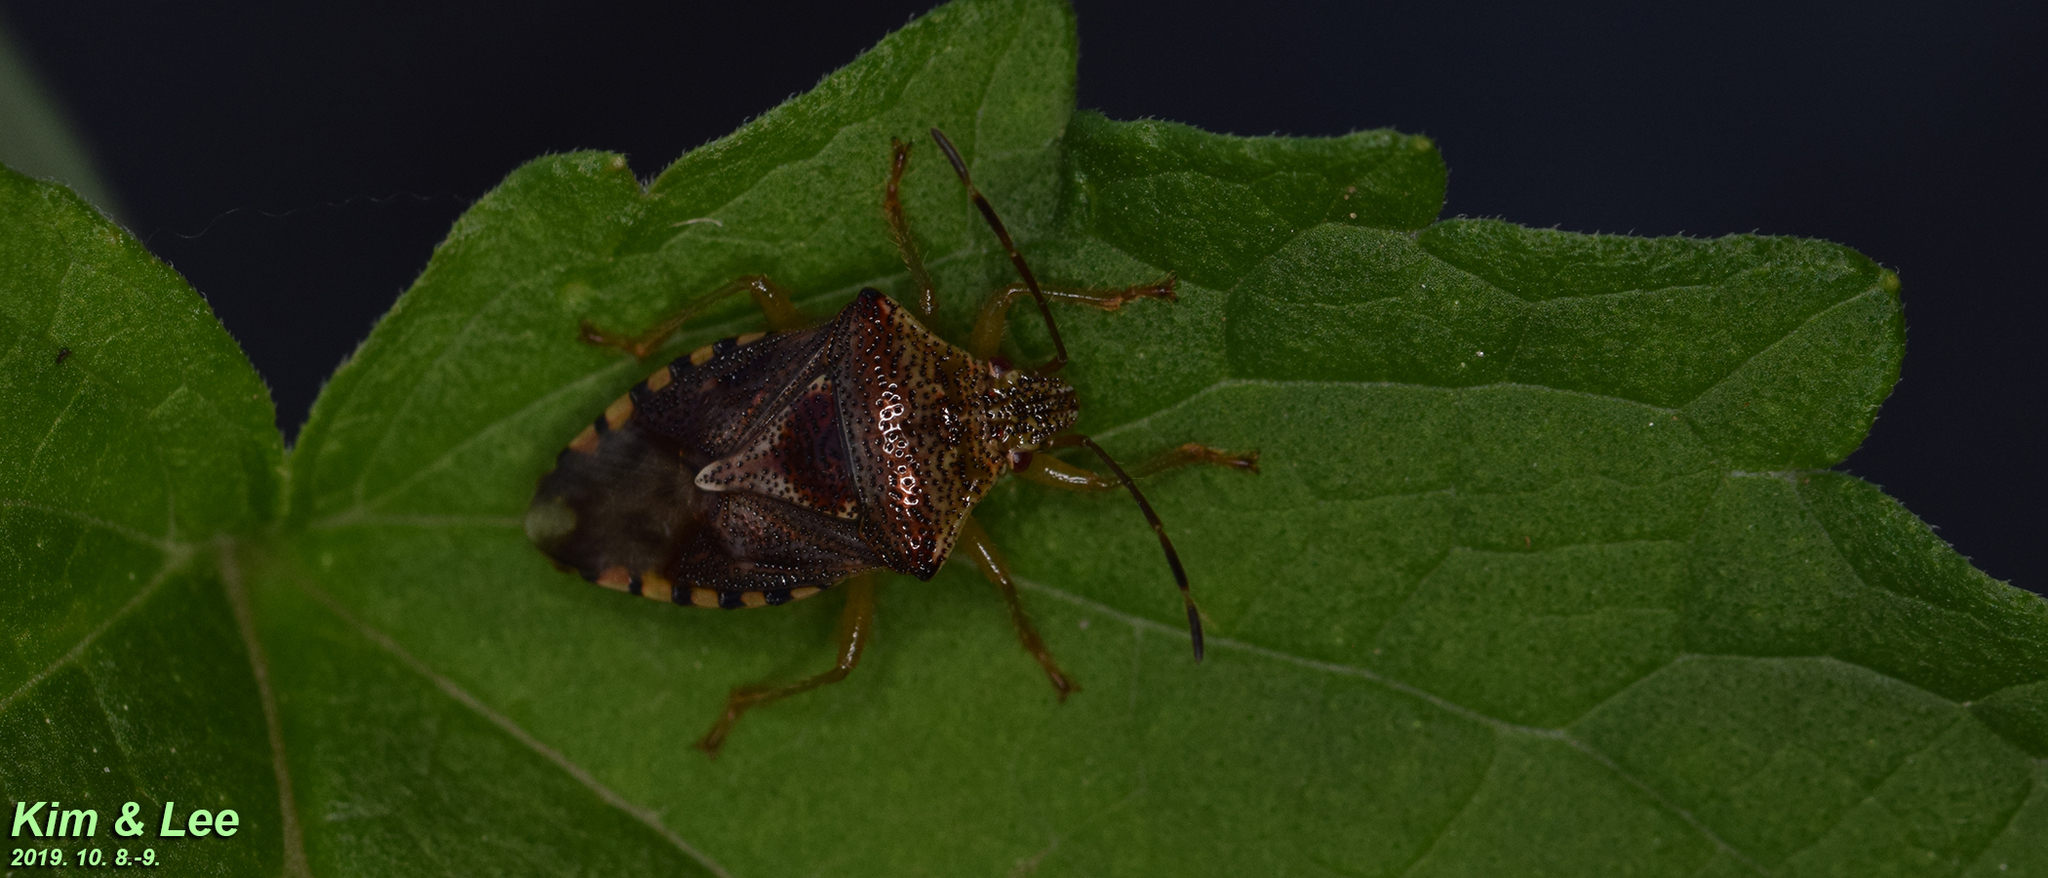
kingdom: Animalia
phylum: Arthropoda
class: Insecta
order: Hemiptera
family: Acanthosomatidae
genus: Elasmucha
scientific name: Elasmucha putoni
